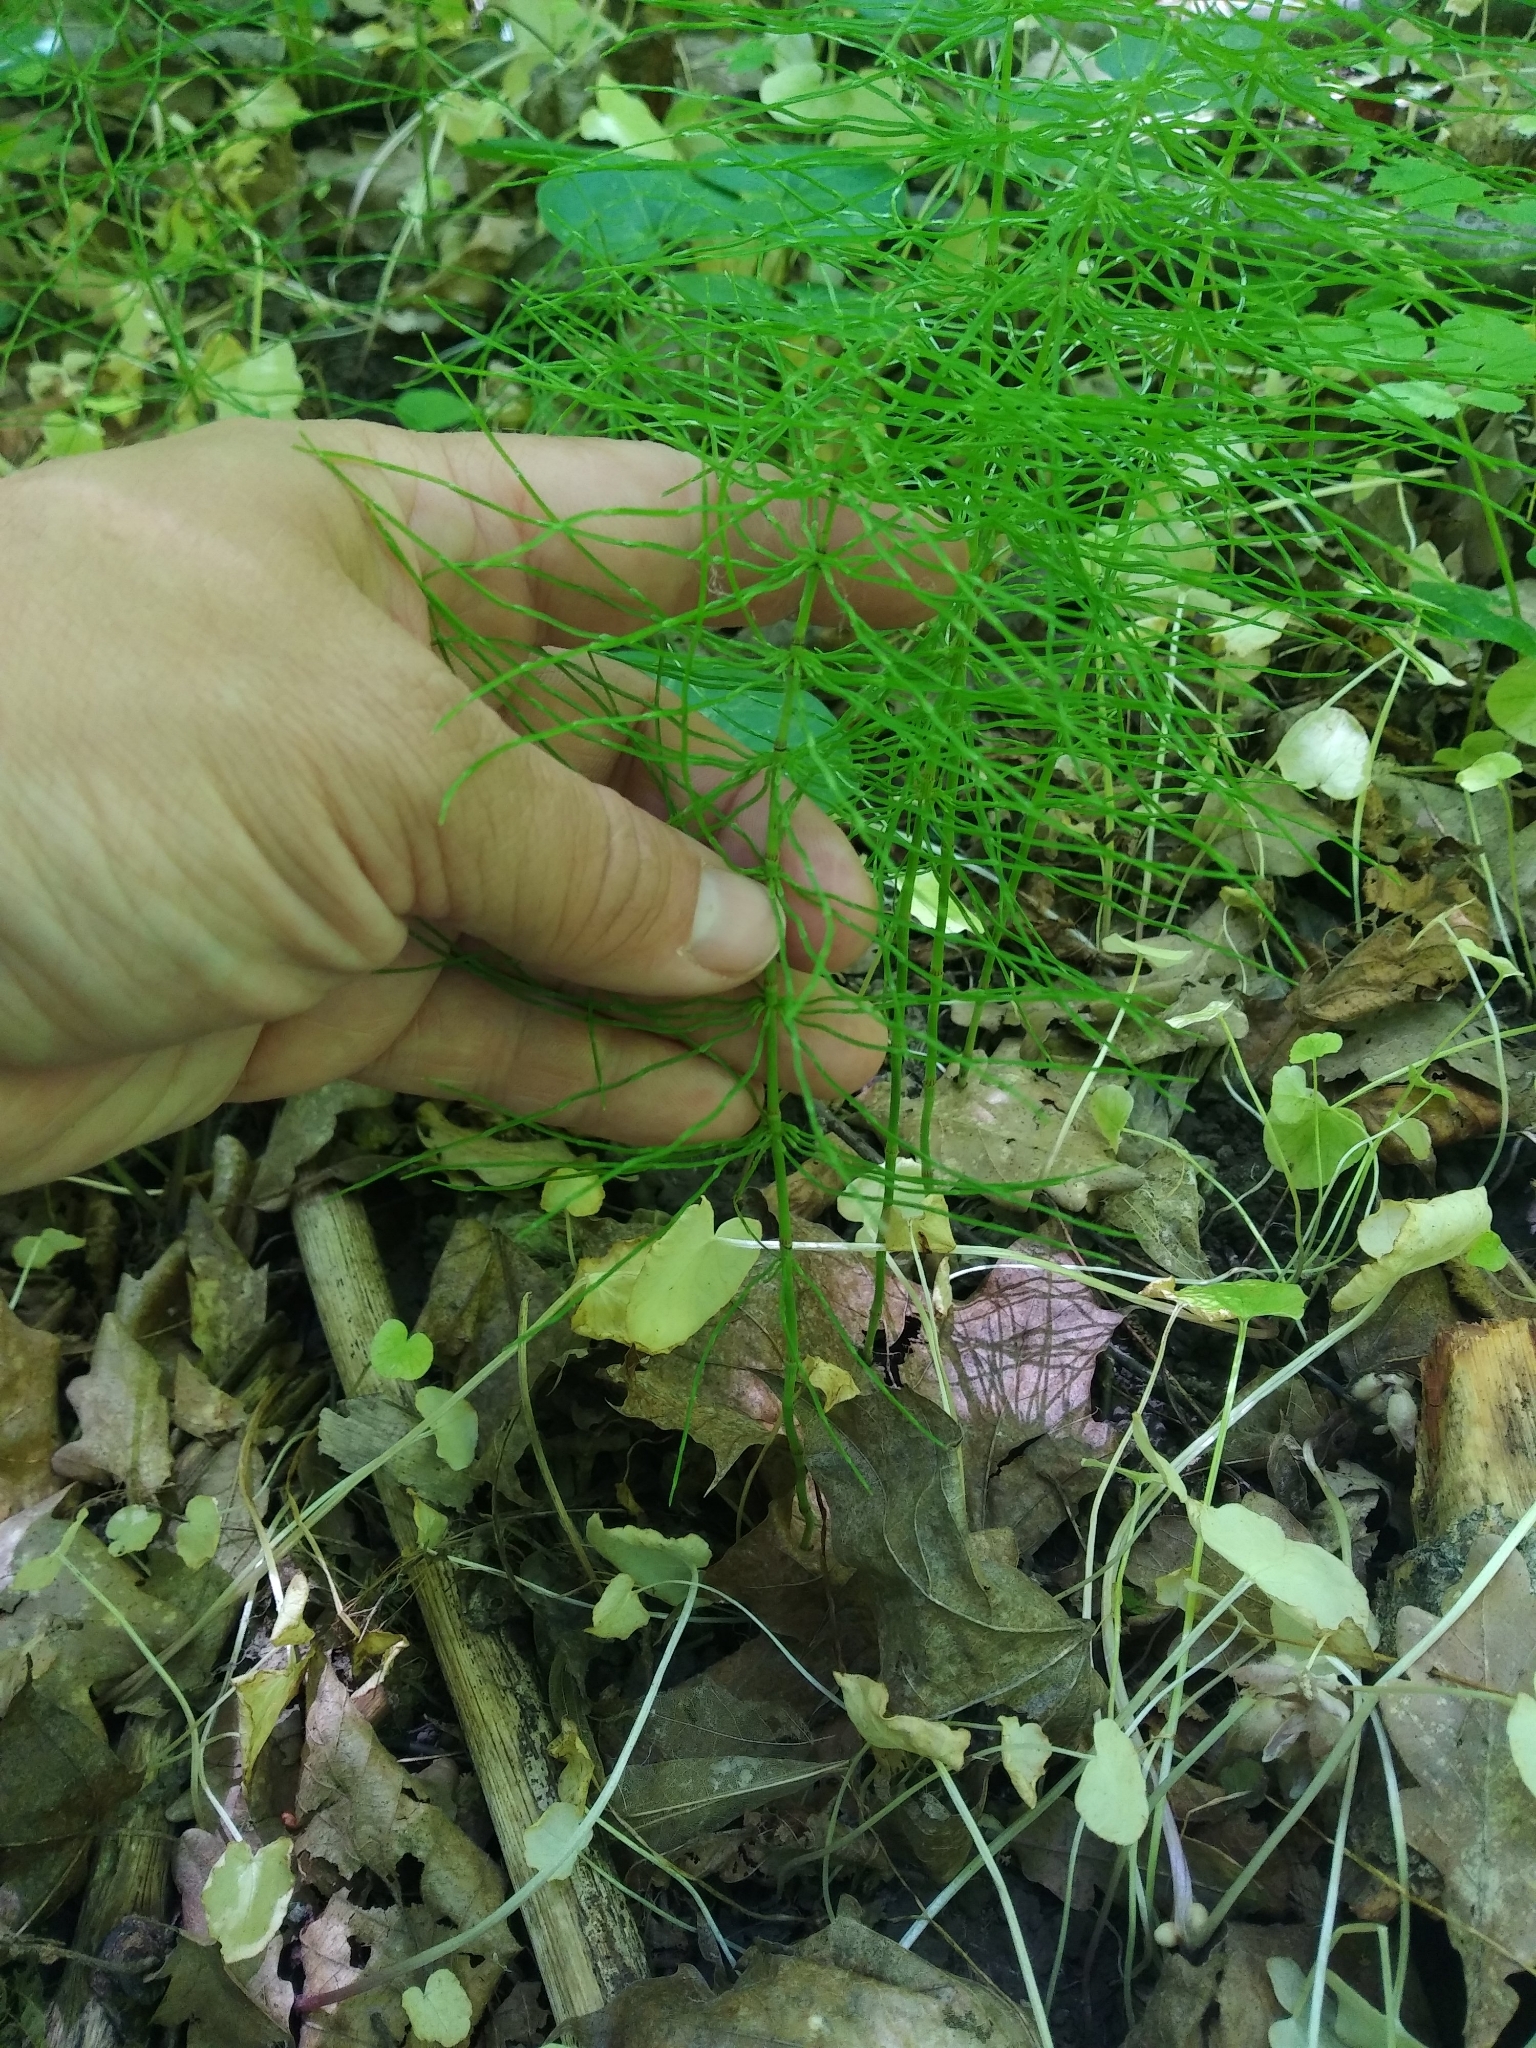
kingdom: Plantae
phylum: Tracheophyta
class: Polypodiopsida
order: Equisetales
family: Equisetaceae
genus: Equisetum
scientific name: Equisetum pratense
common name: Meadow horsetail
